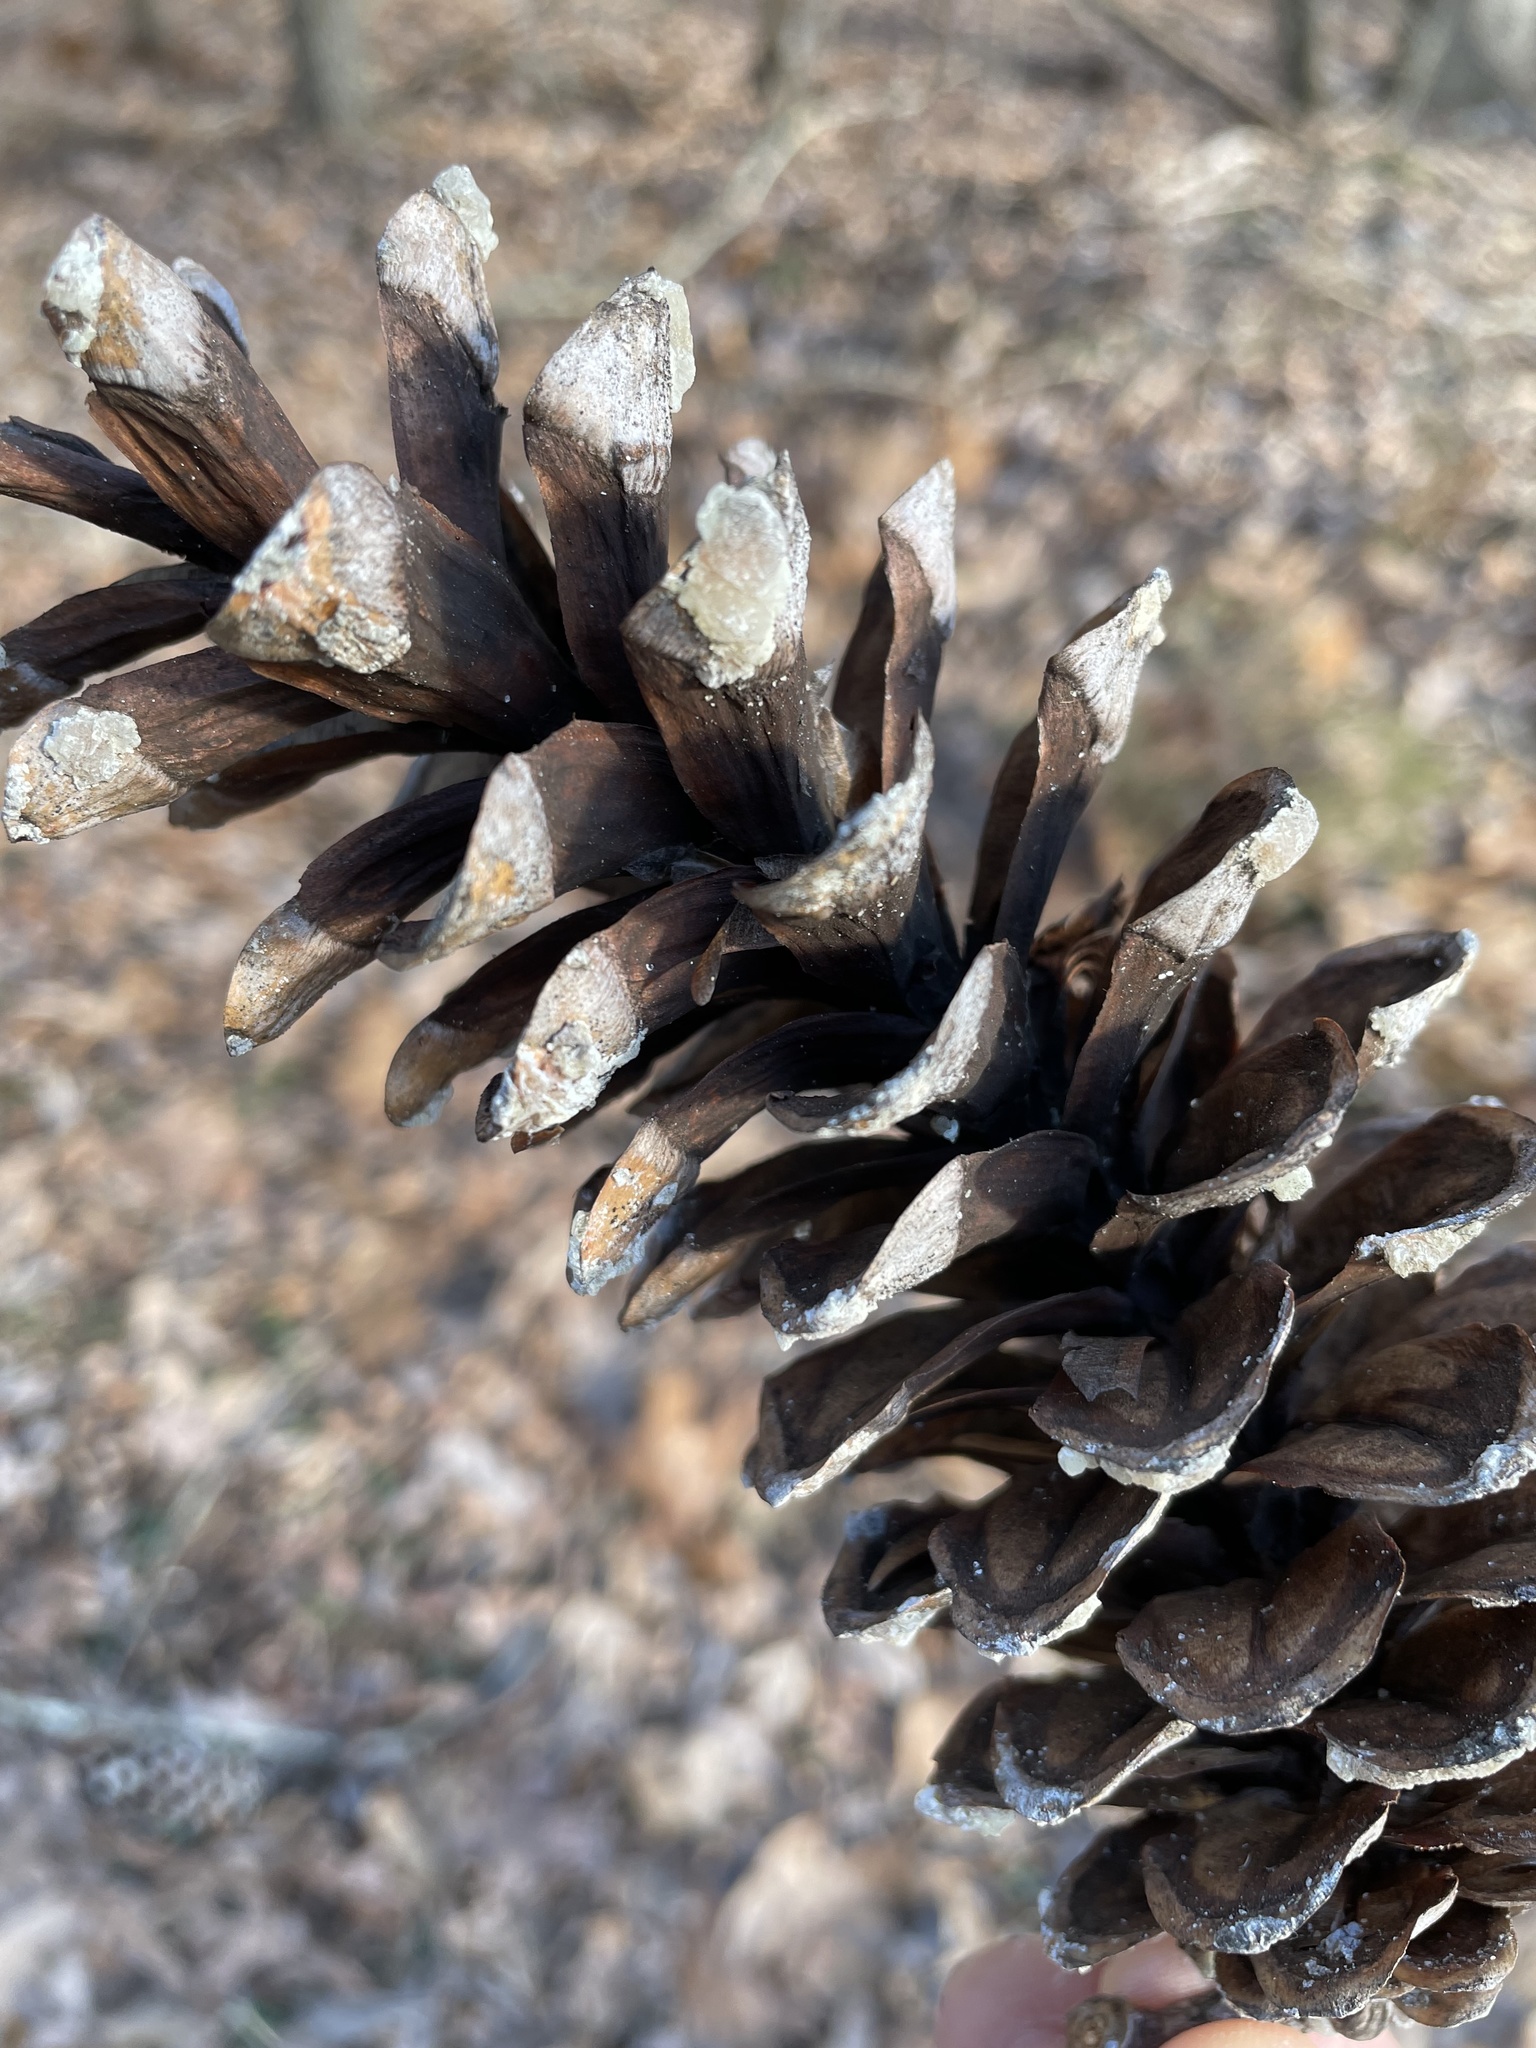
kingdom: Plantae
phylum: Tracheophyta
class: Pinopsida
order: Pinales
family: Pinaceae
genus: Pinus
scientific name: Pinus strobus
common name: Weymouth pine
